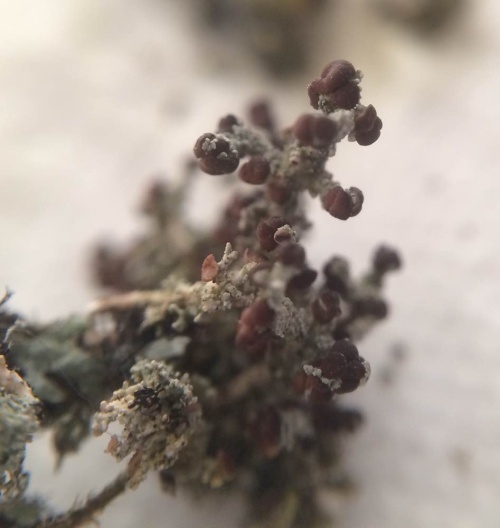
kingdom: Fungi
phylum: Ascomycota
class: Lecanoromycetes
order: Lecanorales
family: Stereocaulaceae
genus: Stereocaulon
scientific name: Stereocaulon dactylophyllum
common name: Finger-scale foam lichen
